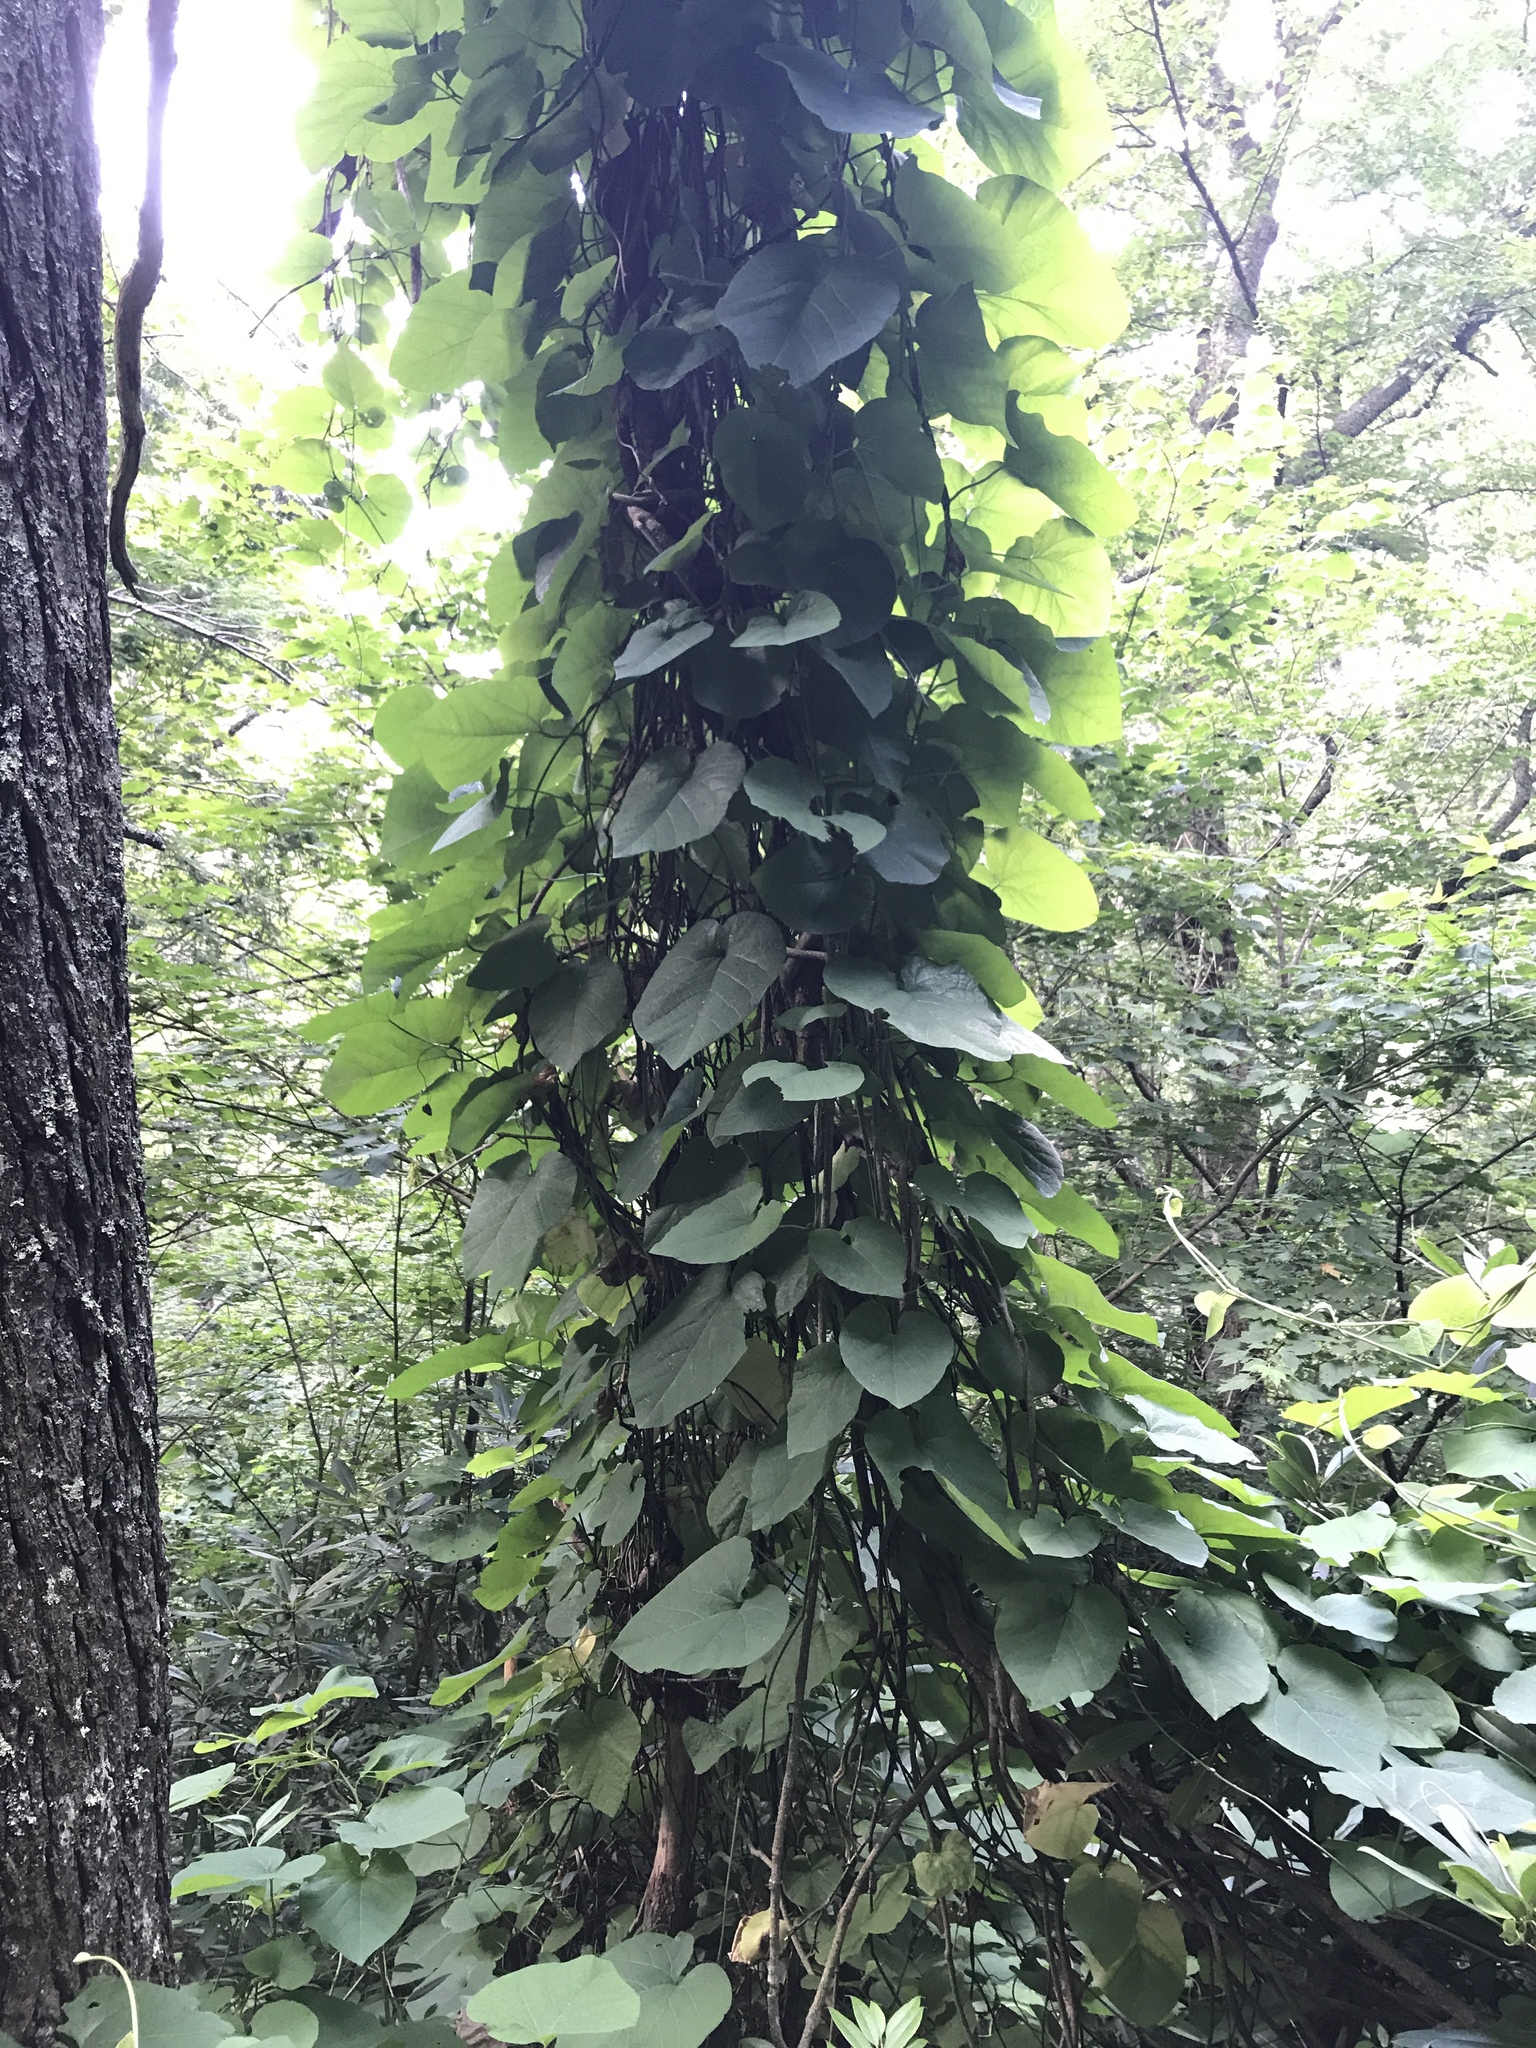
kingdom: Plantae
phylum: Tracheophyta
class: Magnoliopsida
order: Piperales
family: Aristolochiaceae
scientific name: Aristolochiaceae
